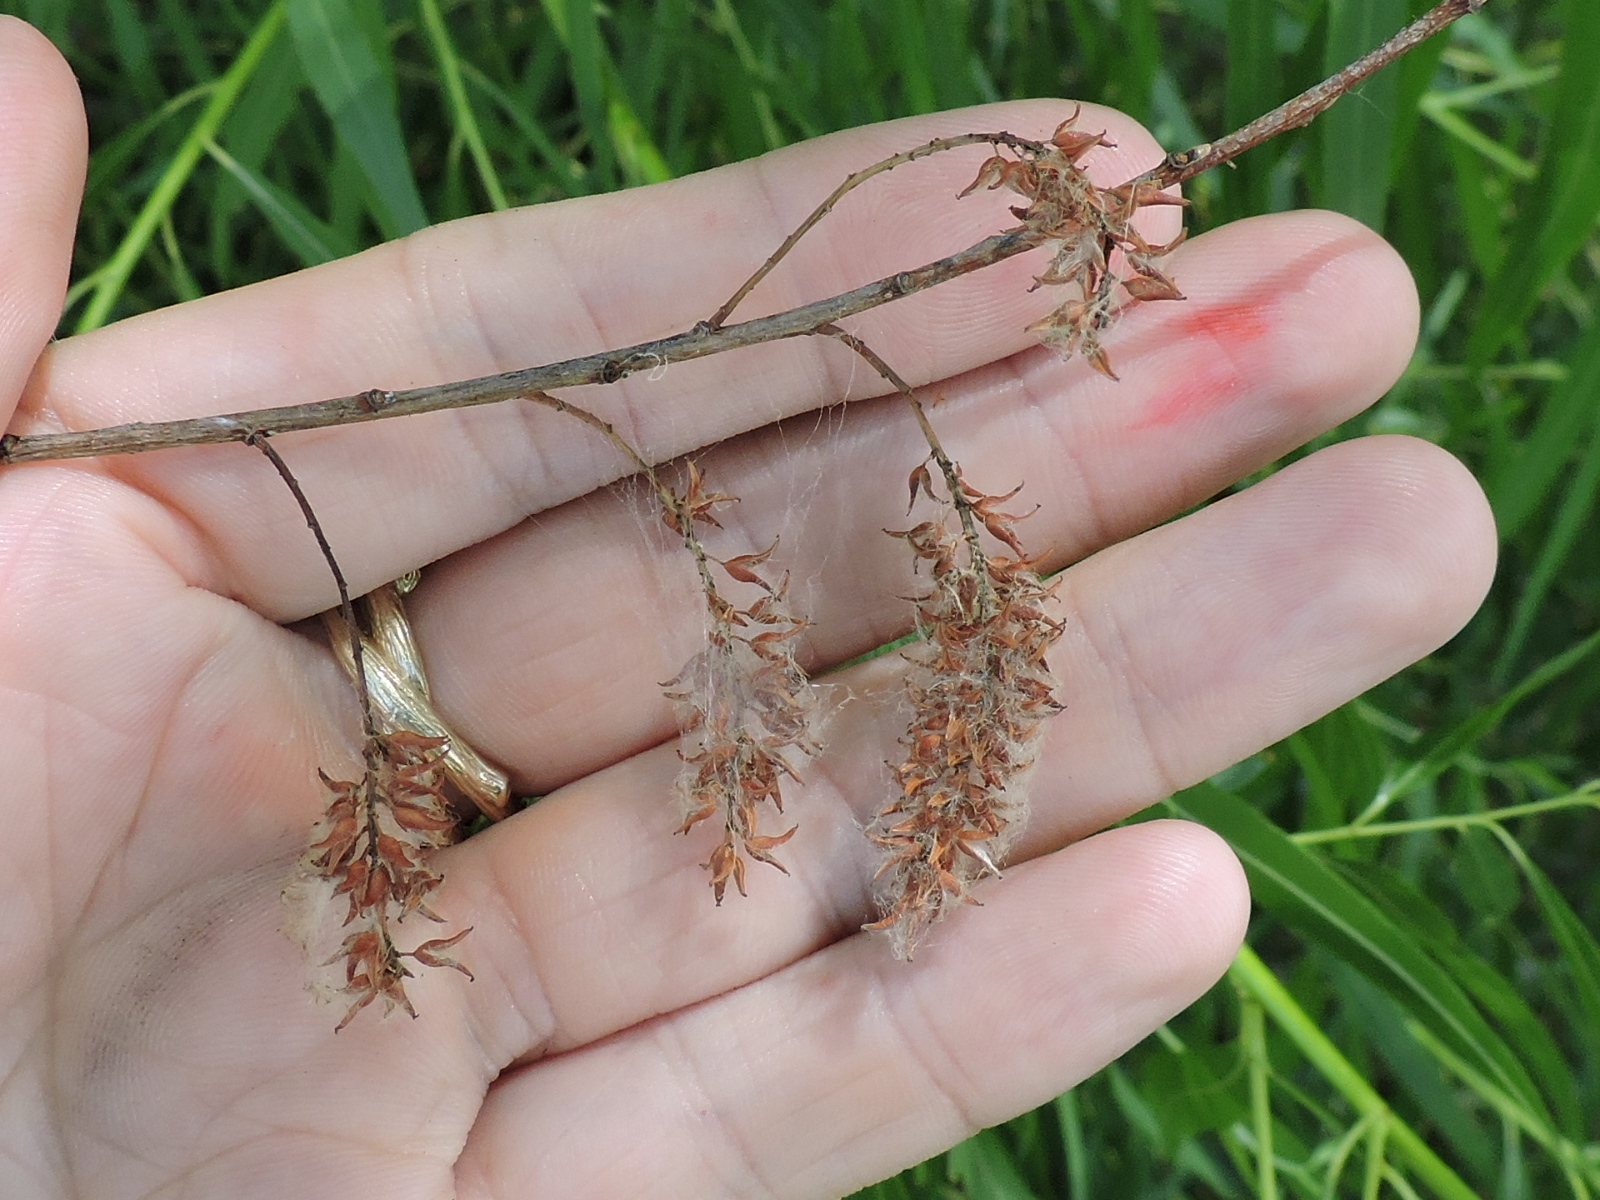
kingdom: Plantae
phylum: Tracheophyta
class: Magnoliopsida
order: Malpighiales
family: Salicaceae
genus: Salix
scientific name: Salix nigra
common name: Black willow
